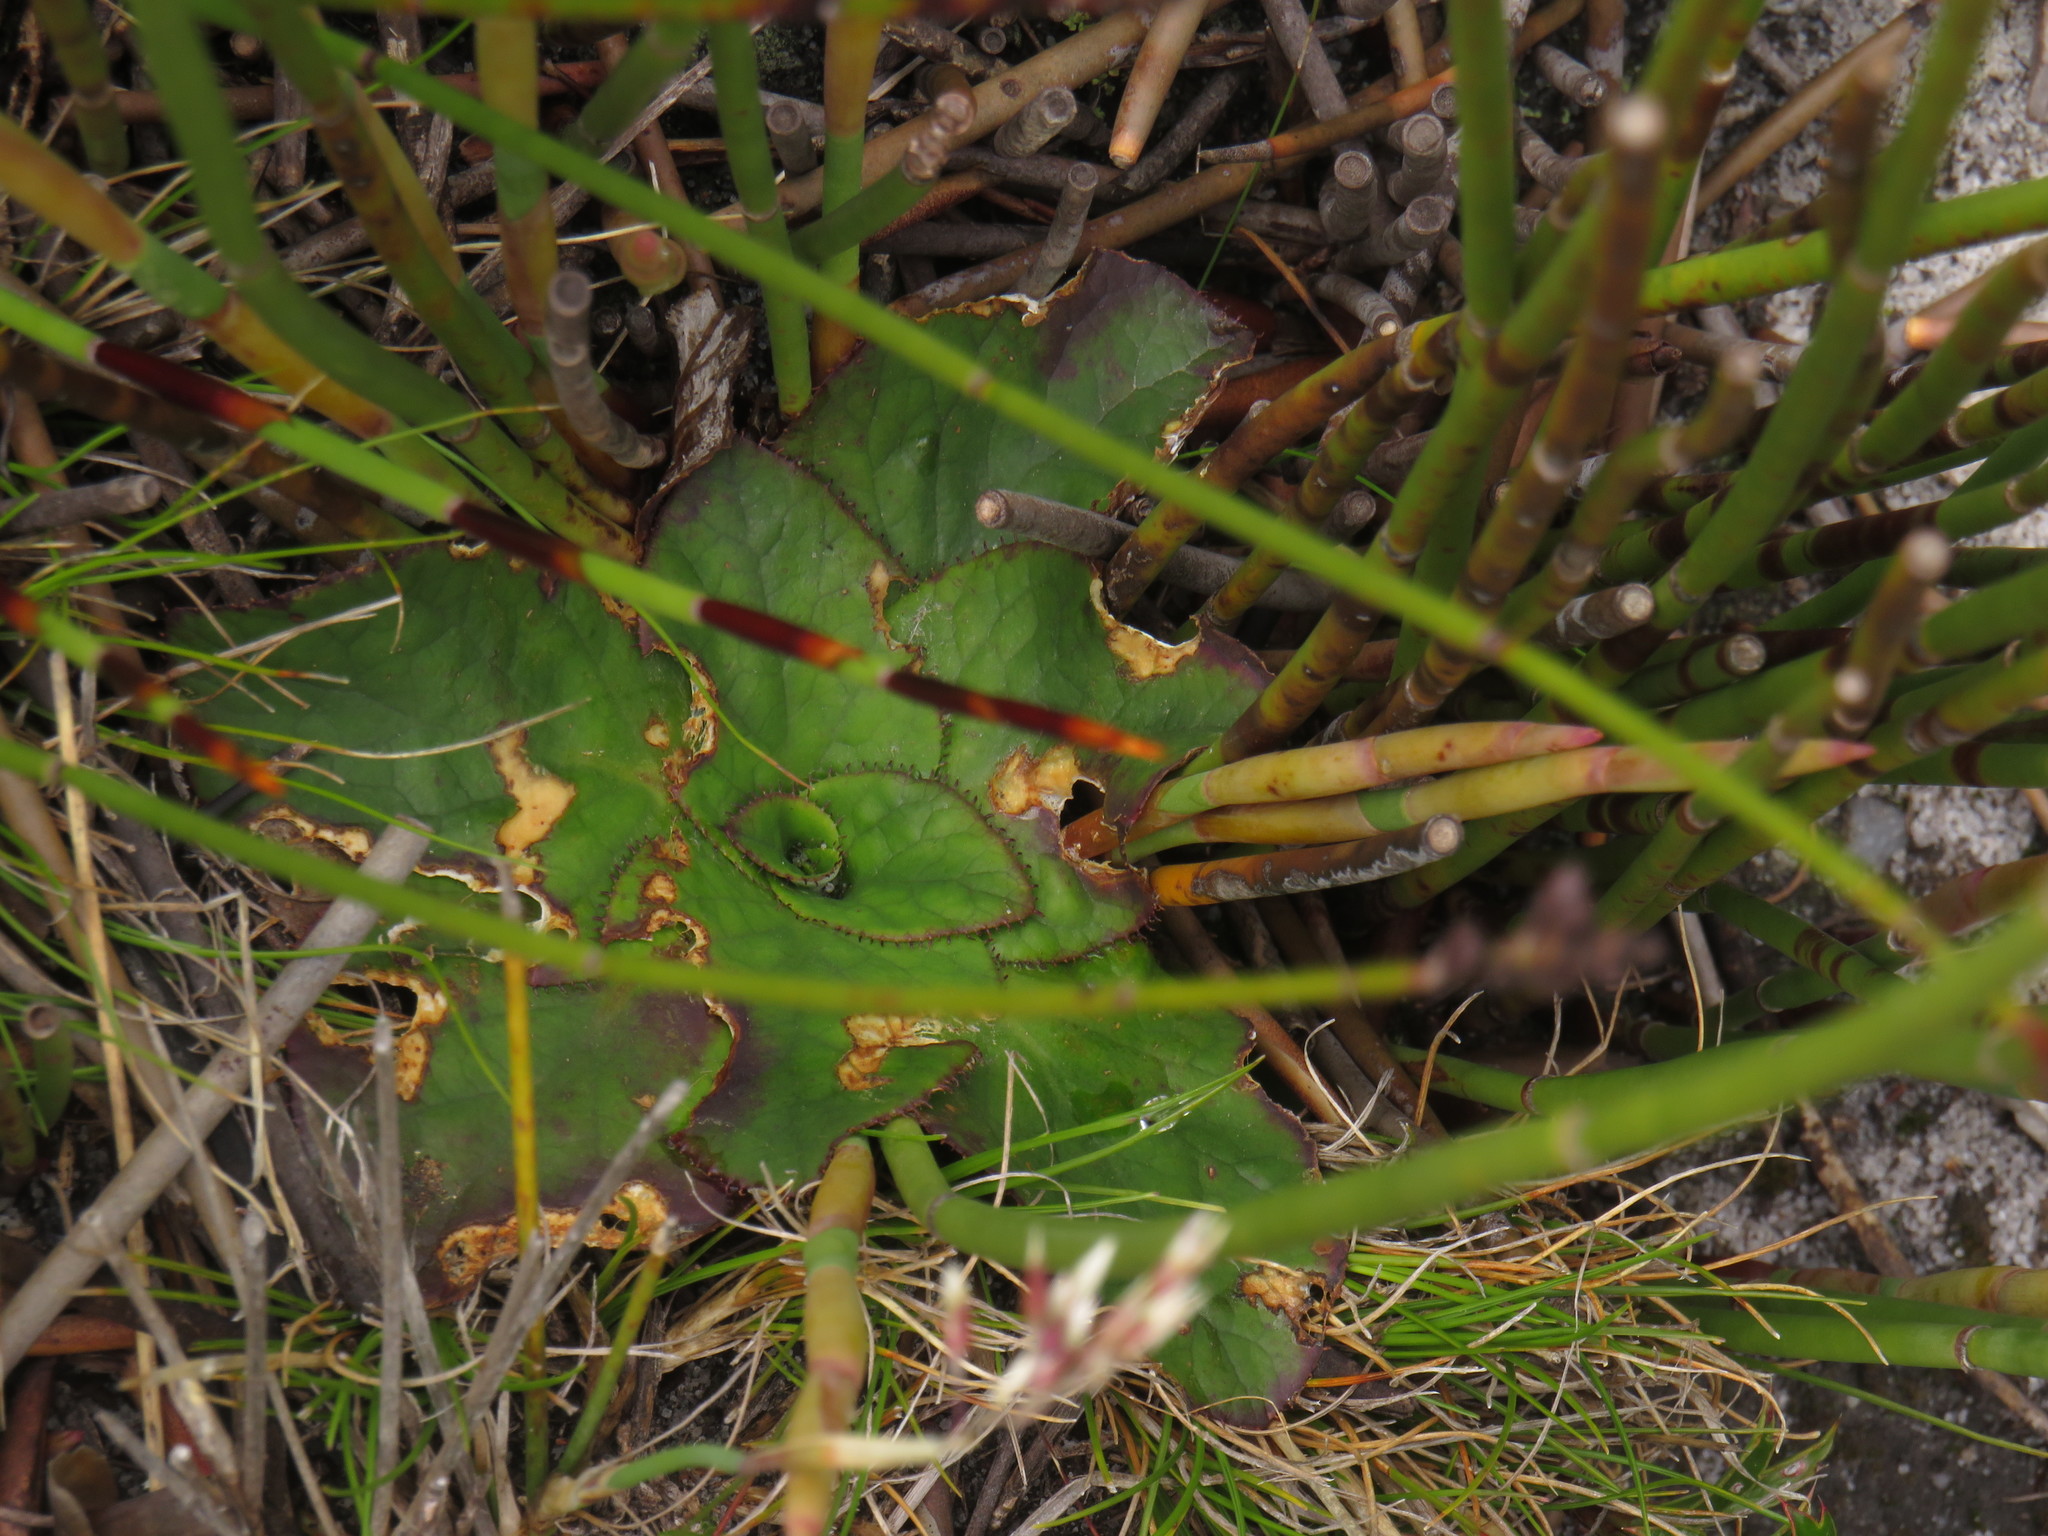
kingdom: Plantae
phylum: Tracheophyta
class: Magnoliopsida
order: Apiales
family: Apiaceae
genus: Hermas
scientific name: Hermas ciliata
